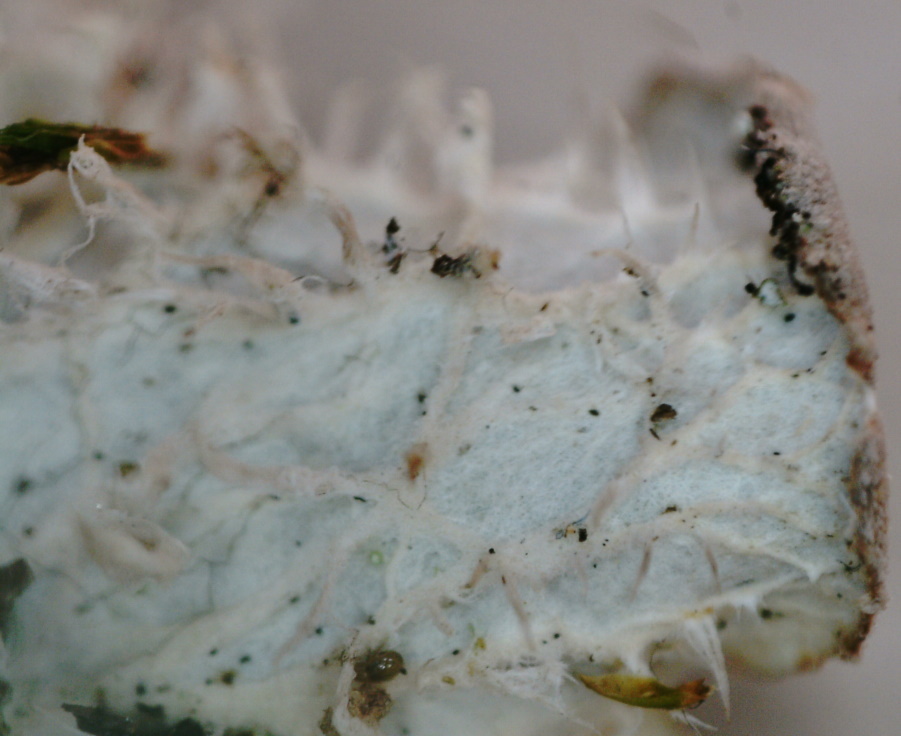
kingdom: Fungi
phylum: Ascomycota
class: Lecanoromycetes
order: Peltigerales
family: Peltigeraceae
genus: Peltigera
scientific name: Peltigera membranacea
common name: Membranous pelt lichen
